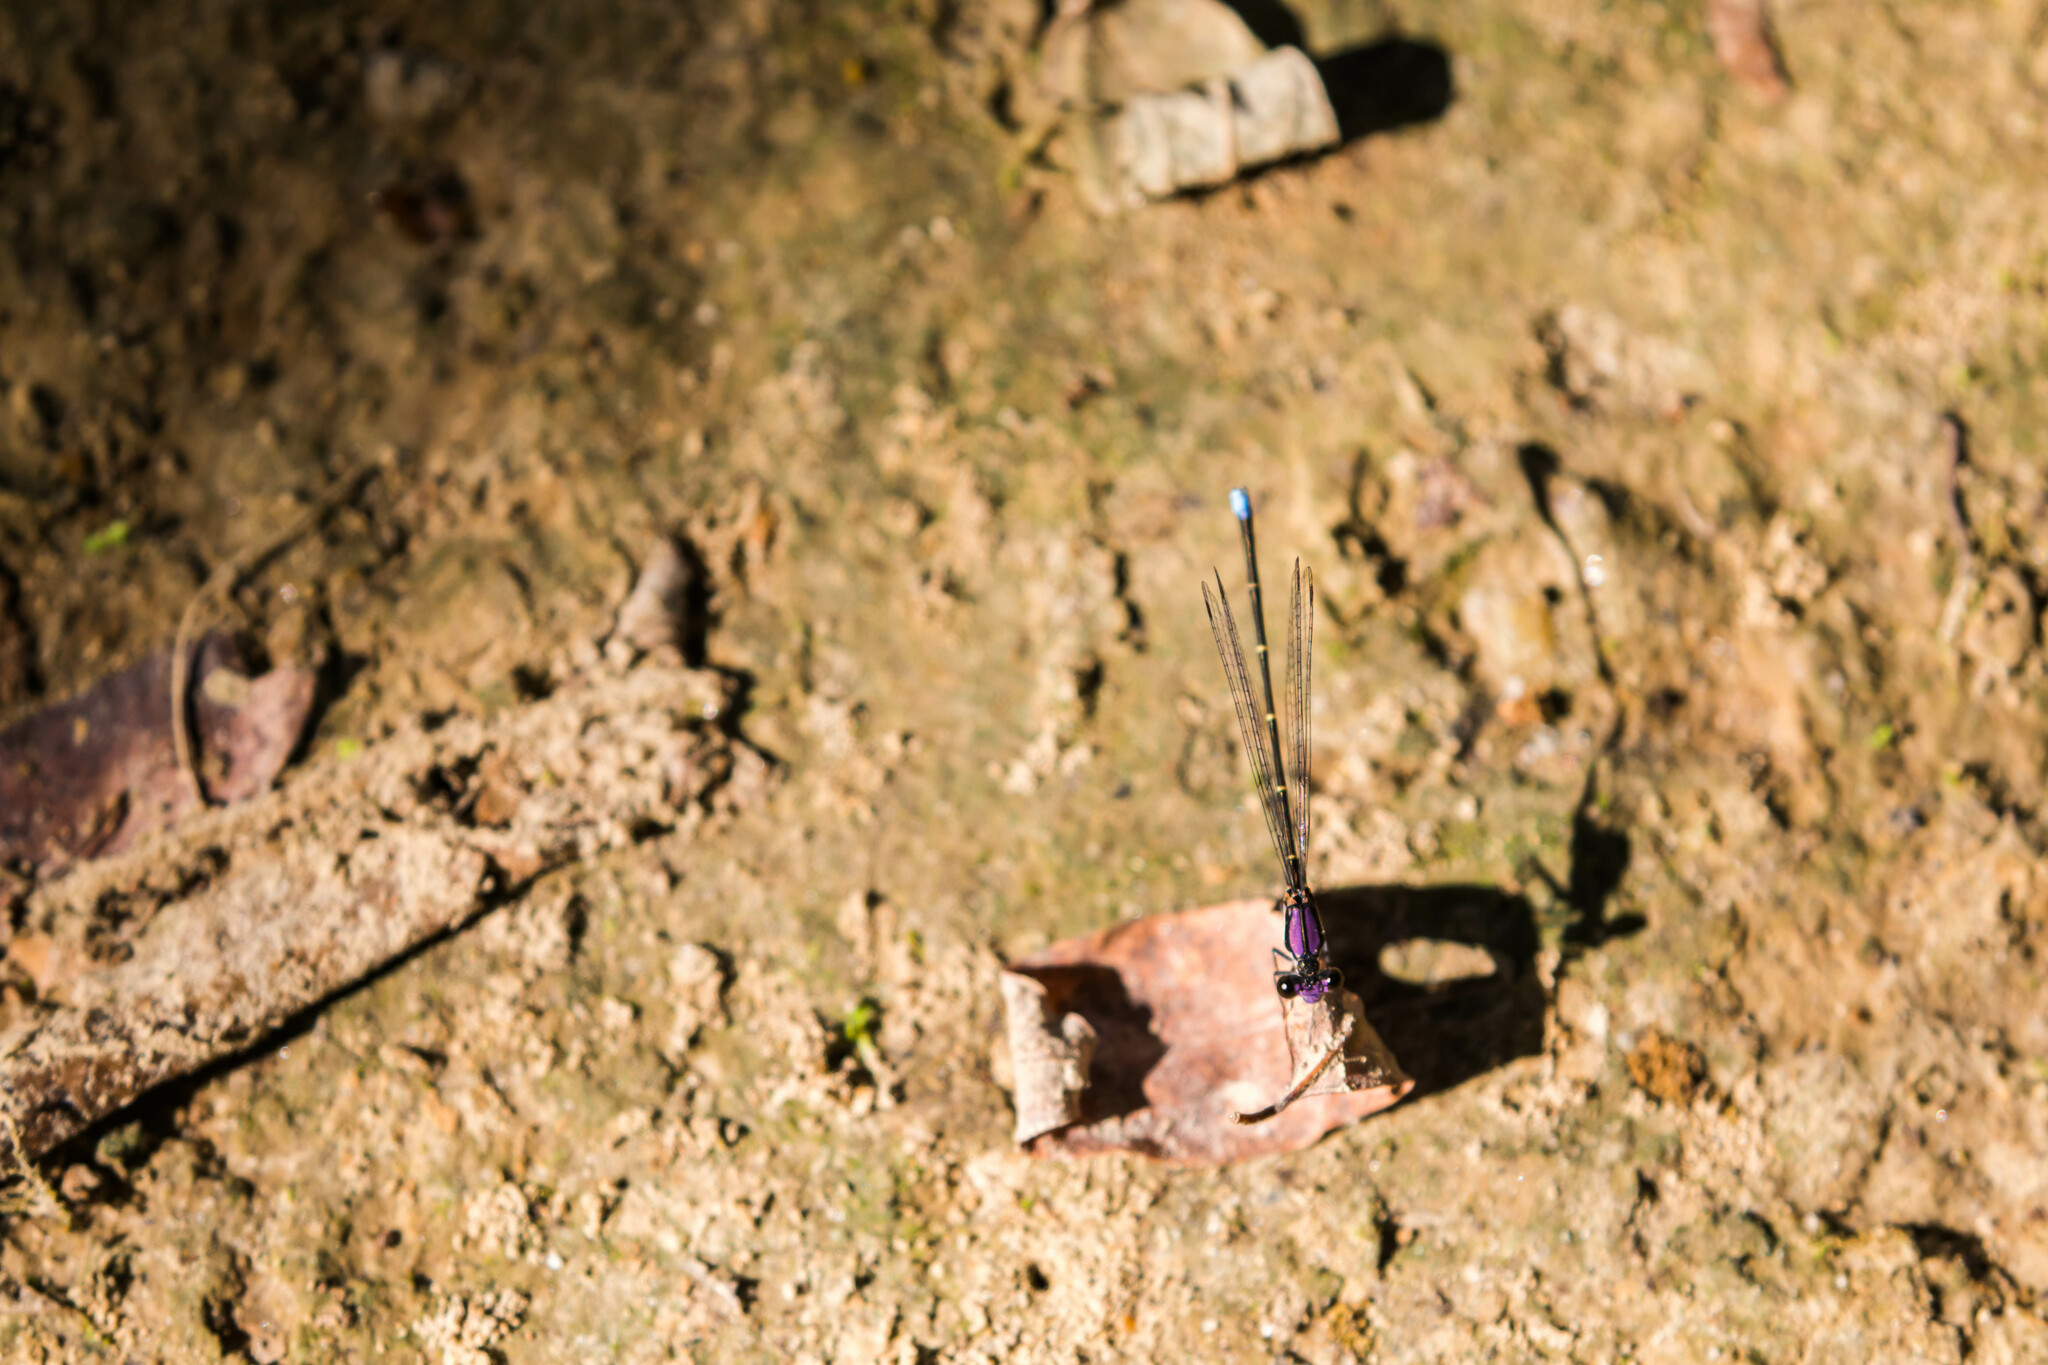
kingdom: Animalia
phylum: Arthropoda
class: Insecta
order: Odonata
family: Coenagrionidae
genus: Argia
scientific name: Argia tibialis
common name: Blue-tipped dancer
